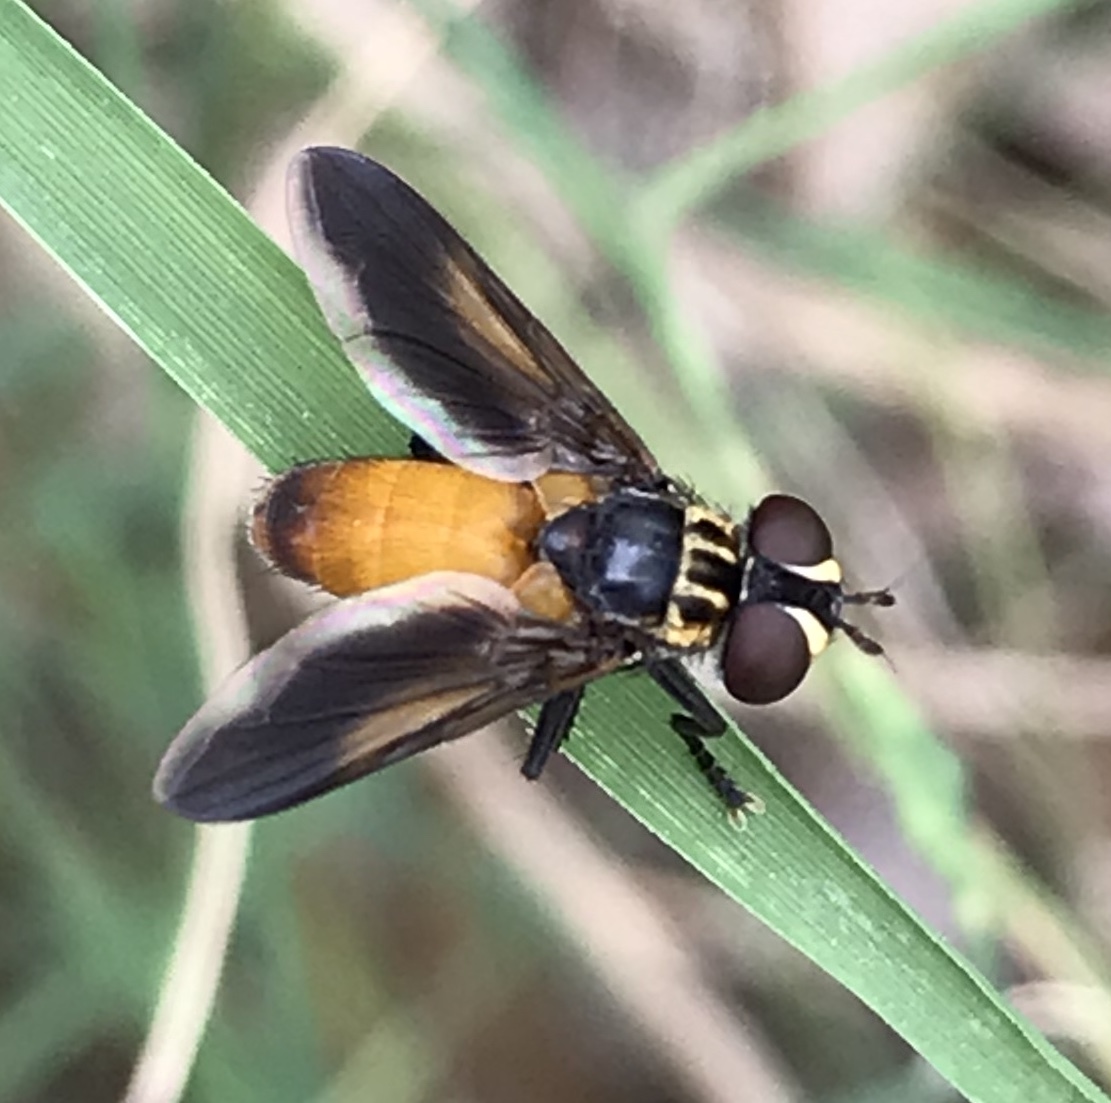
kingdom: Animalia
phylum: Arthropoda
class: Insecta
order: Diptera
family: Tachinidae
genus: Trichopoda
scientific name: Trichopoda pennipes
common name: Tachinid fly
